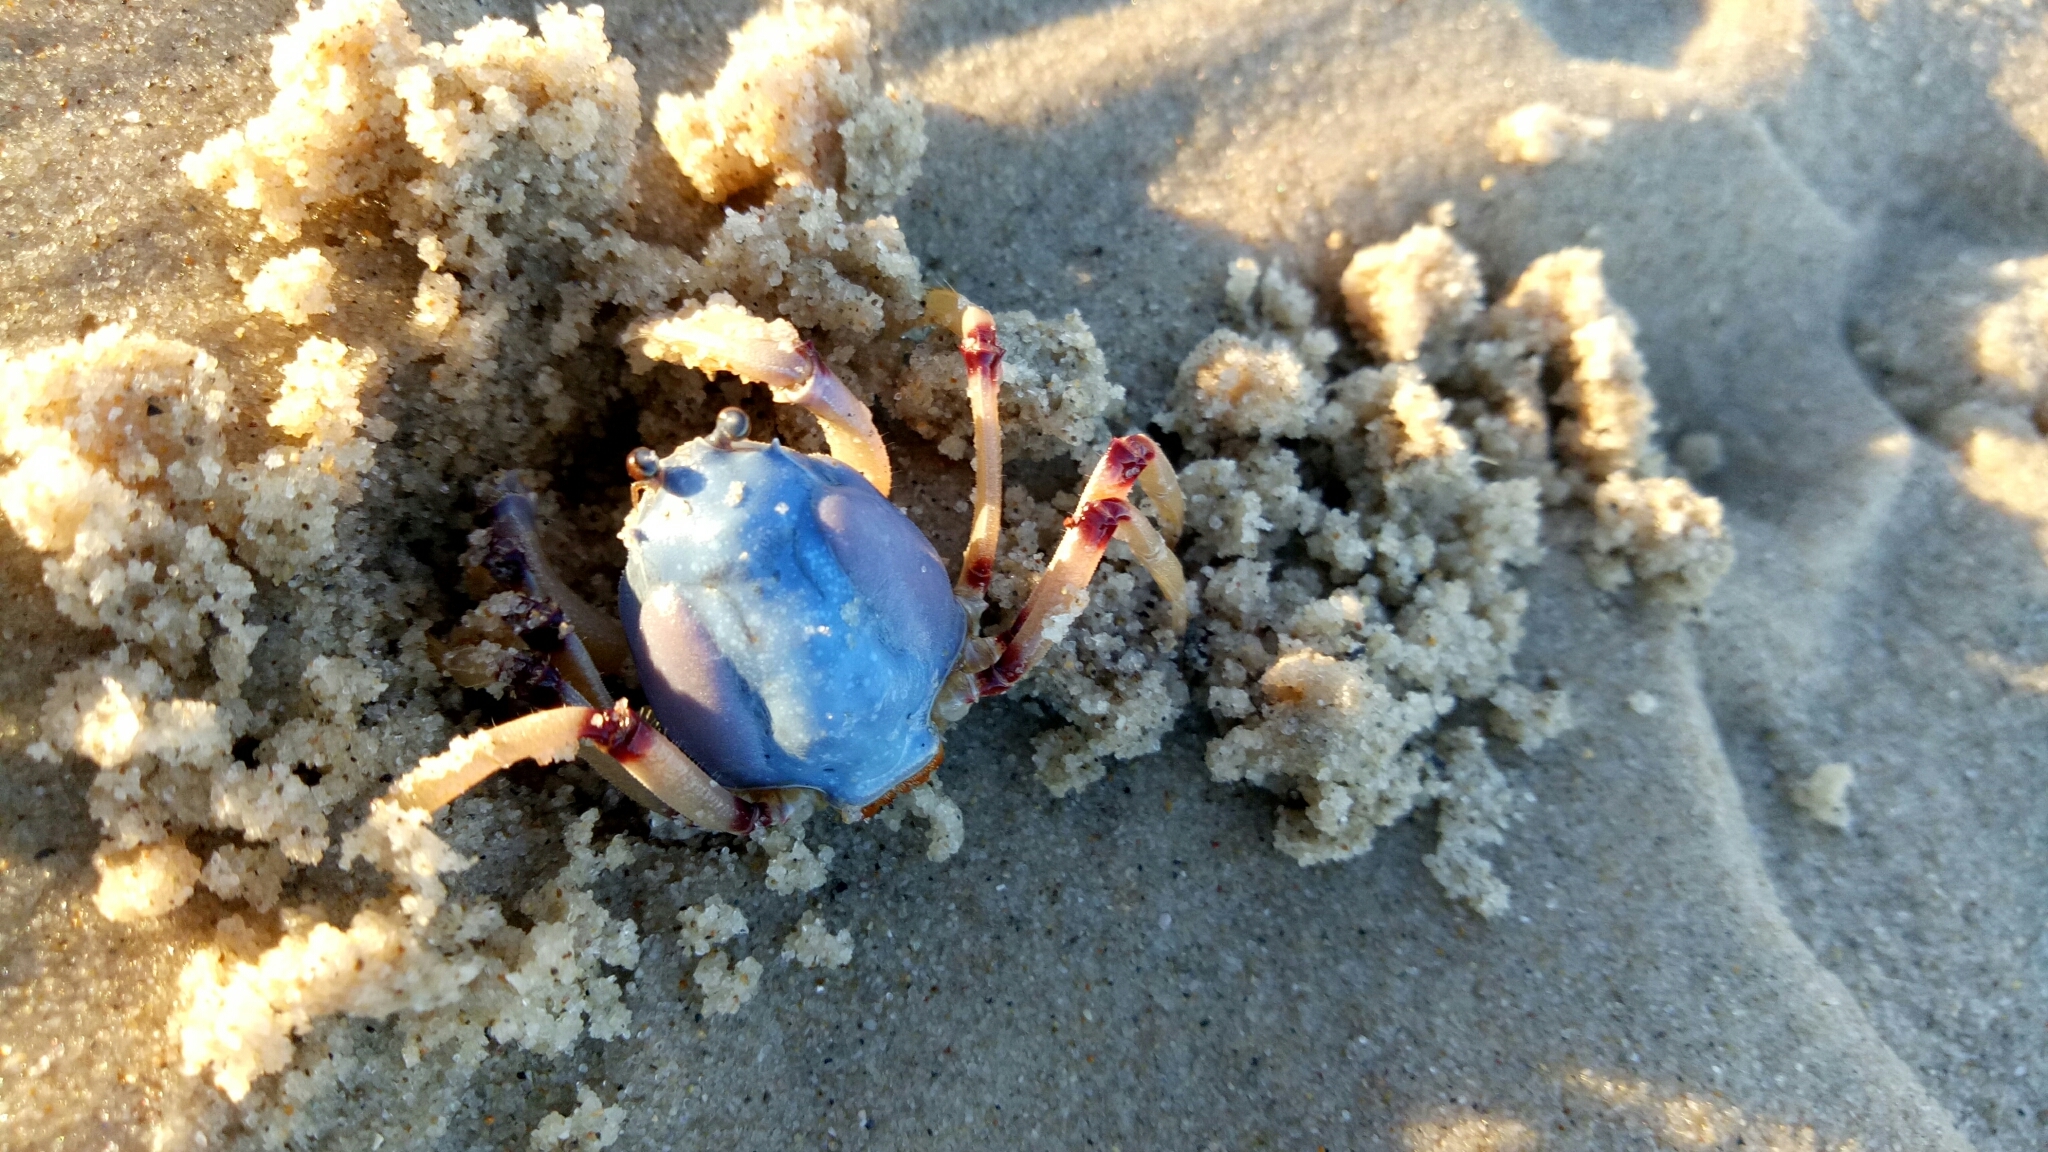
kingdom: Animalia
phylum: Arthropoda
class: Malacostraca
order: Decapoda
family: Mictyridae
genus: Mictyris
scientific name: Mictyris longicarpus
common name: Light-blue soldier crab
